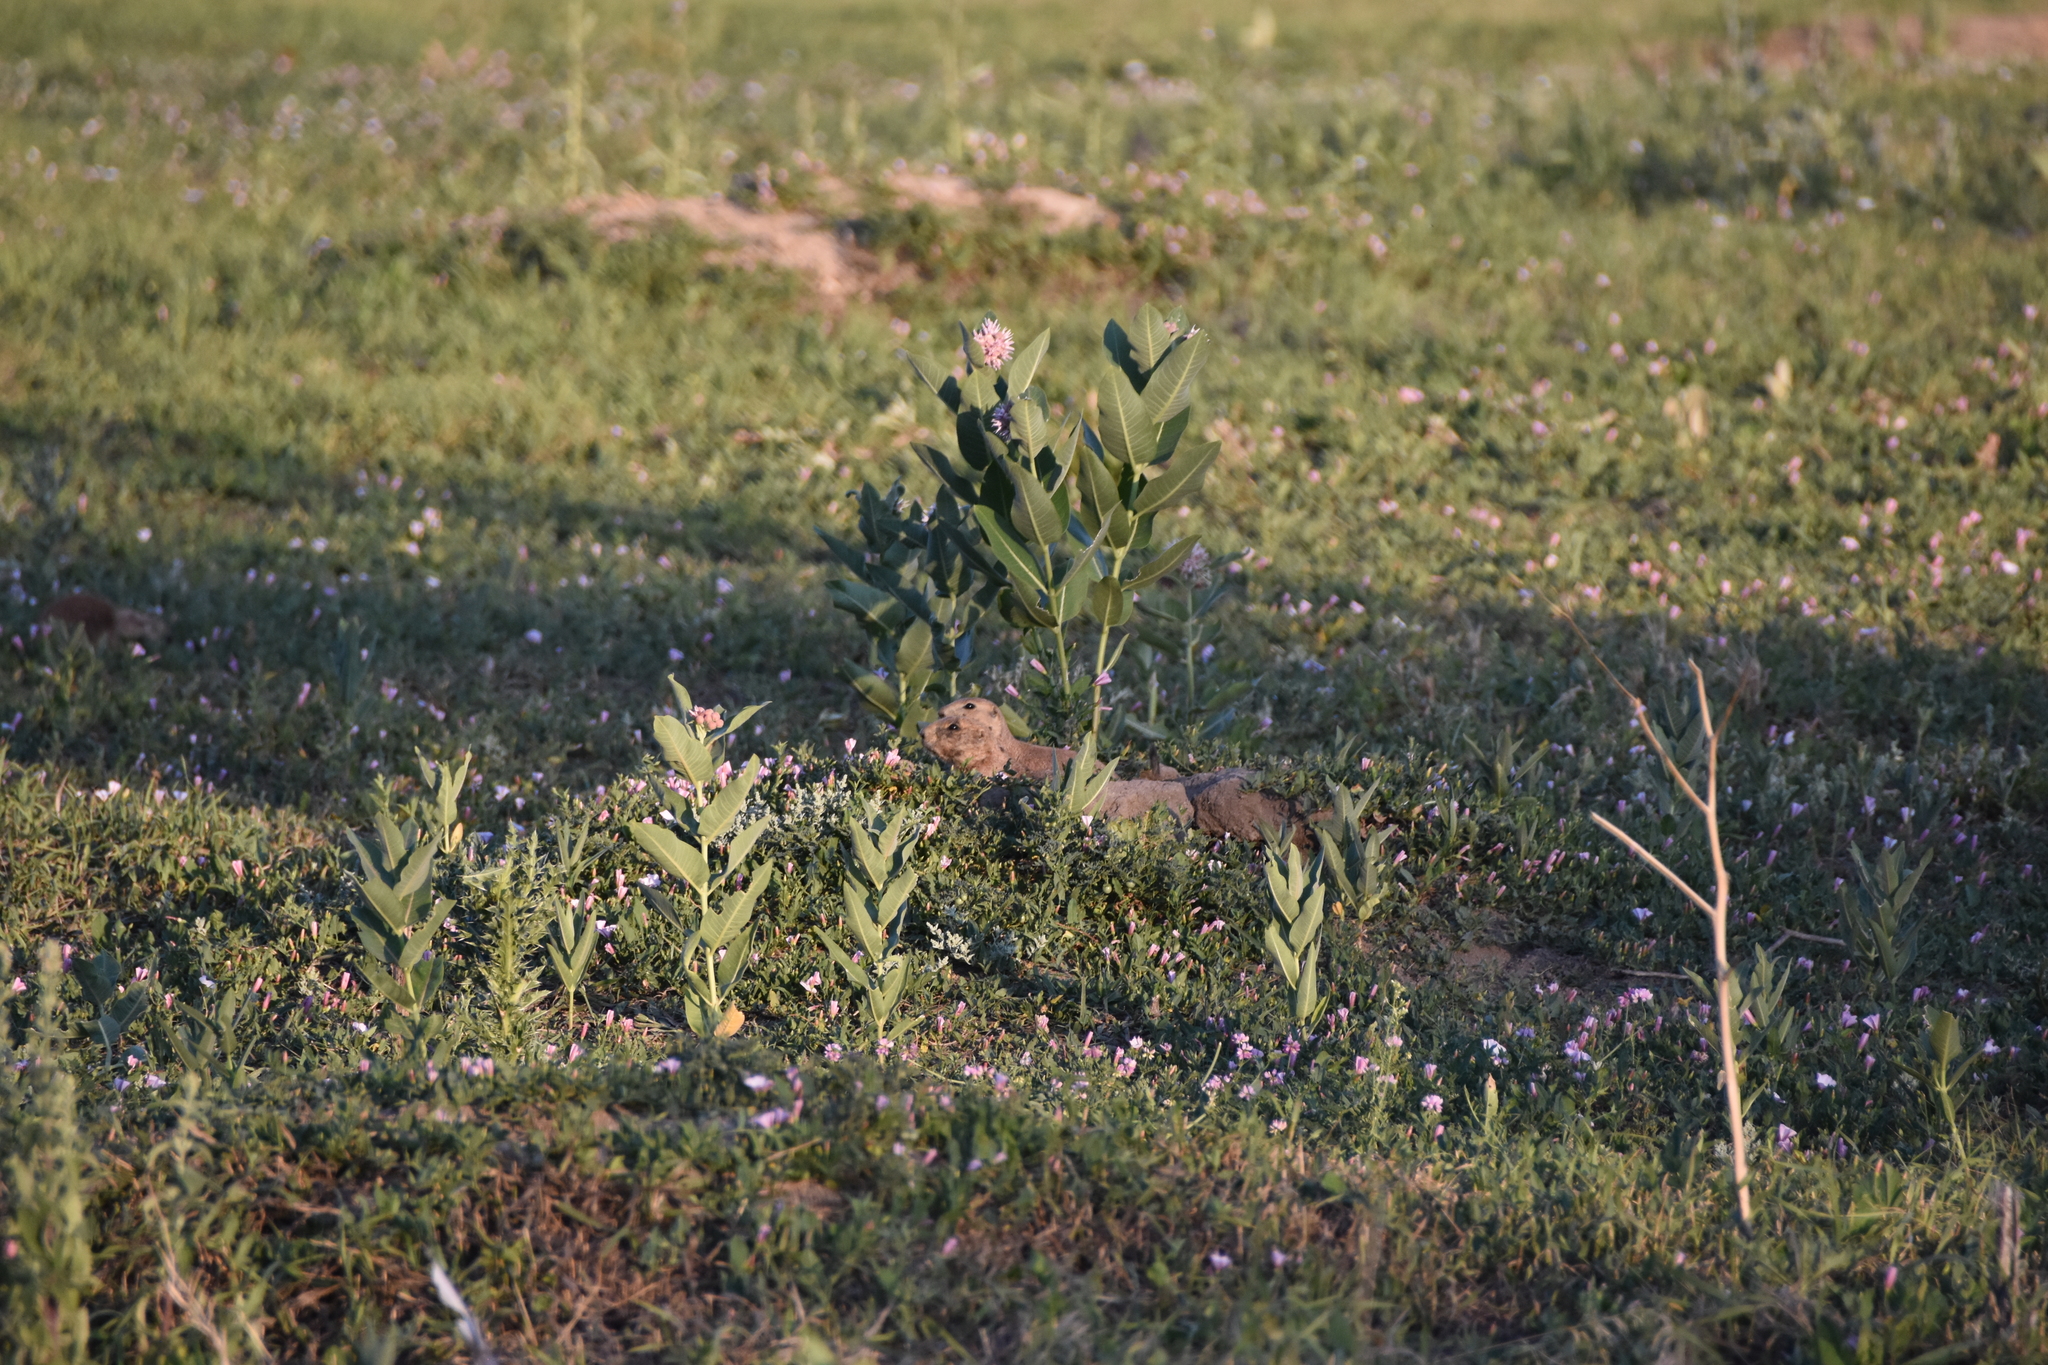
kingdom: Plantae
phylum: Tracheophyta
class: Magnoliopsida
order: Gentianales
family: Apocynaceae
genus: Asclepias
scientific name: Asclepias speciosa
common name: Showy milkweed
